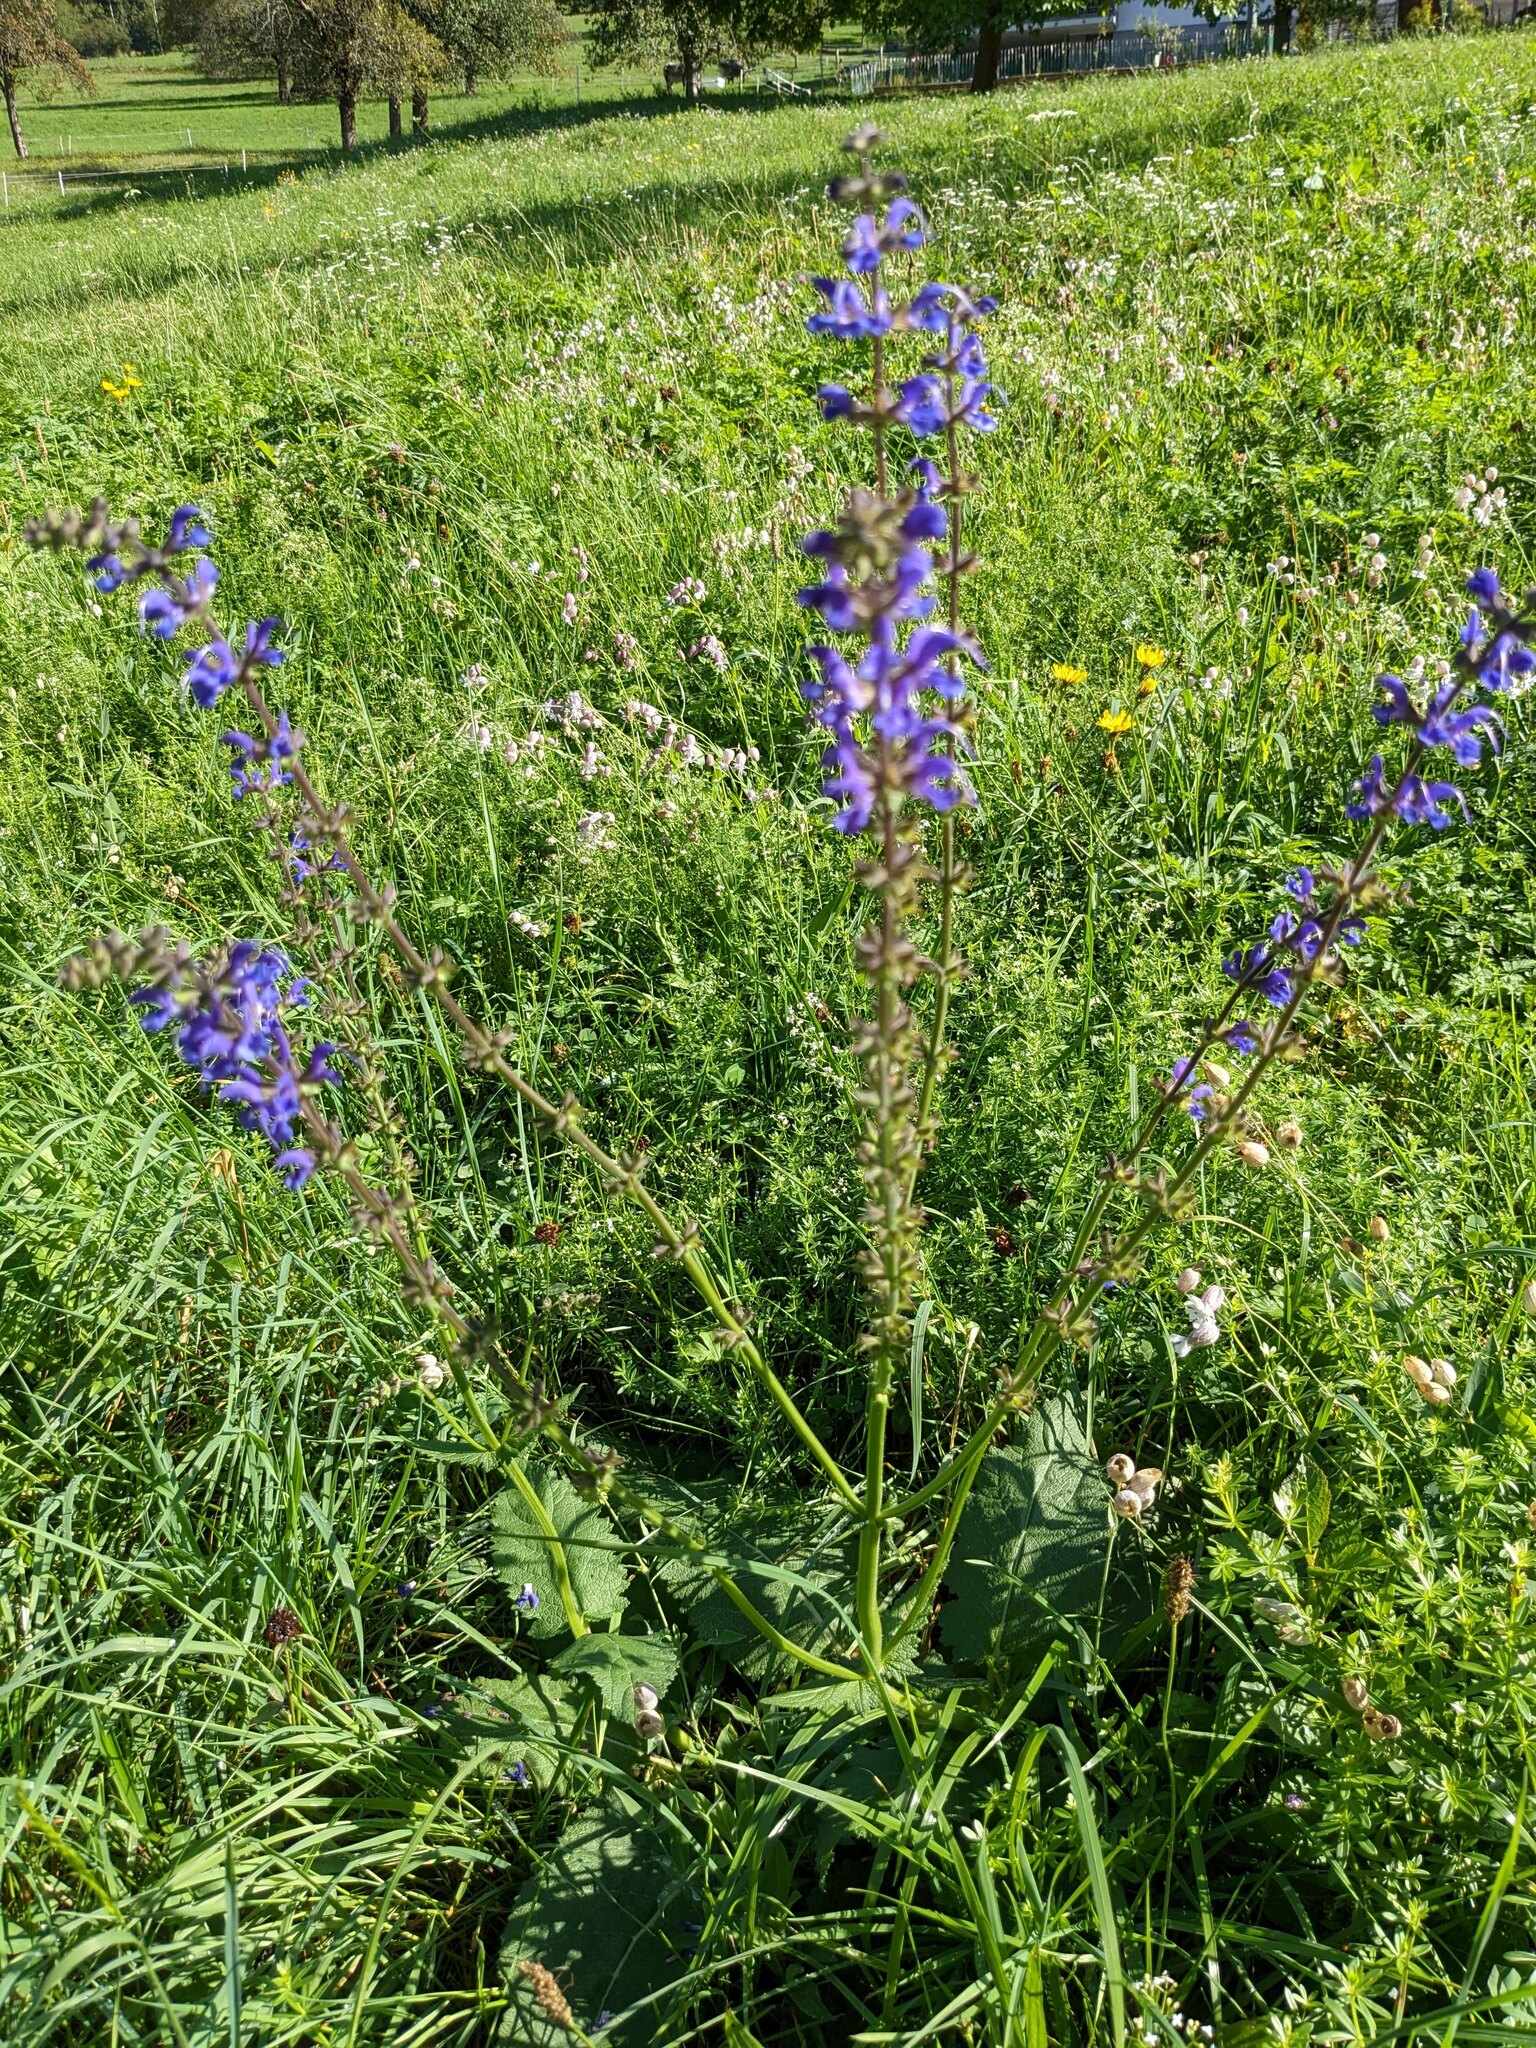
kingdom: Plantae
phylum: Tracheophyta
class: Magnoliopsida
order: Lamiales
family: Lamiaceae
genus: Salvia
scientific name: Salvia pratensis
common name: Meadow sage
